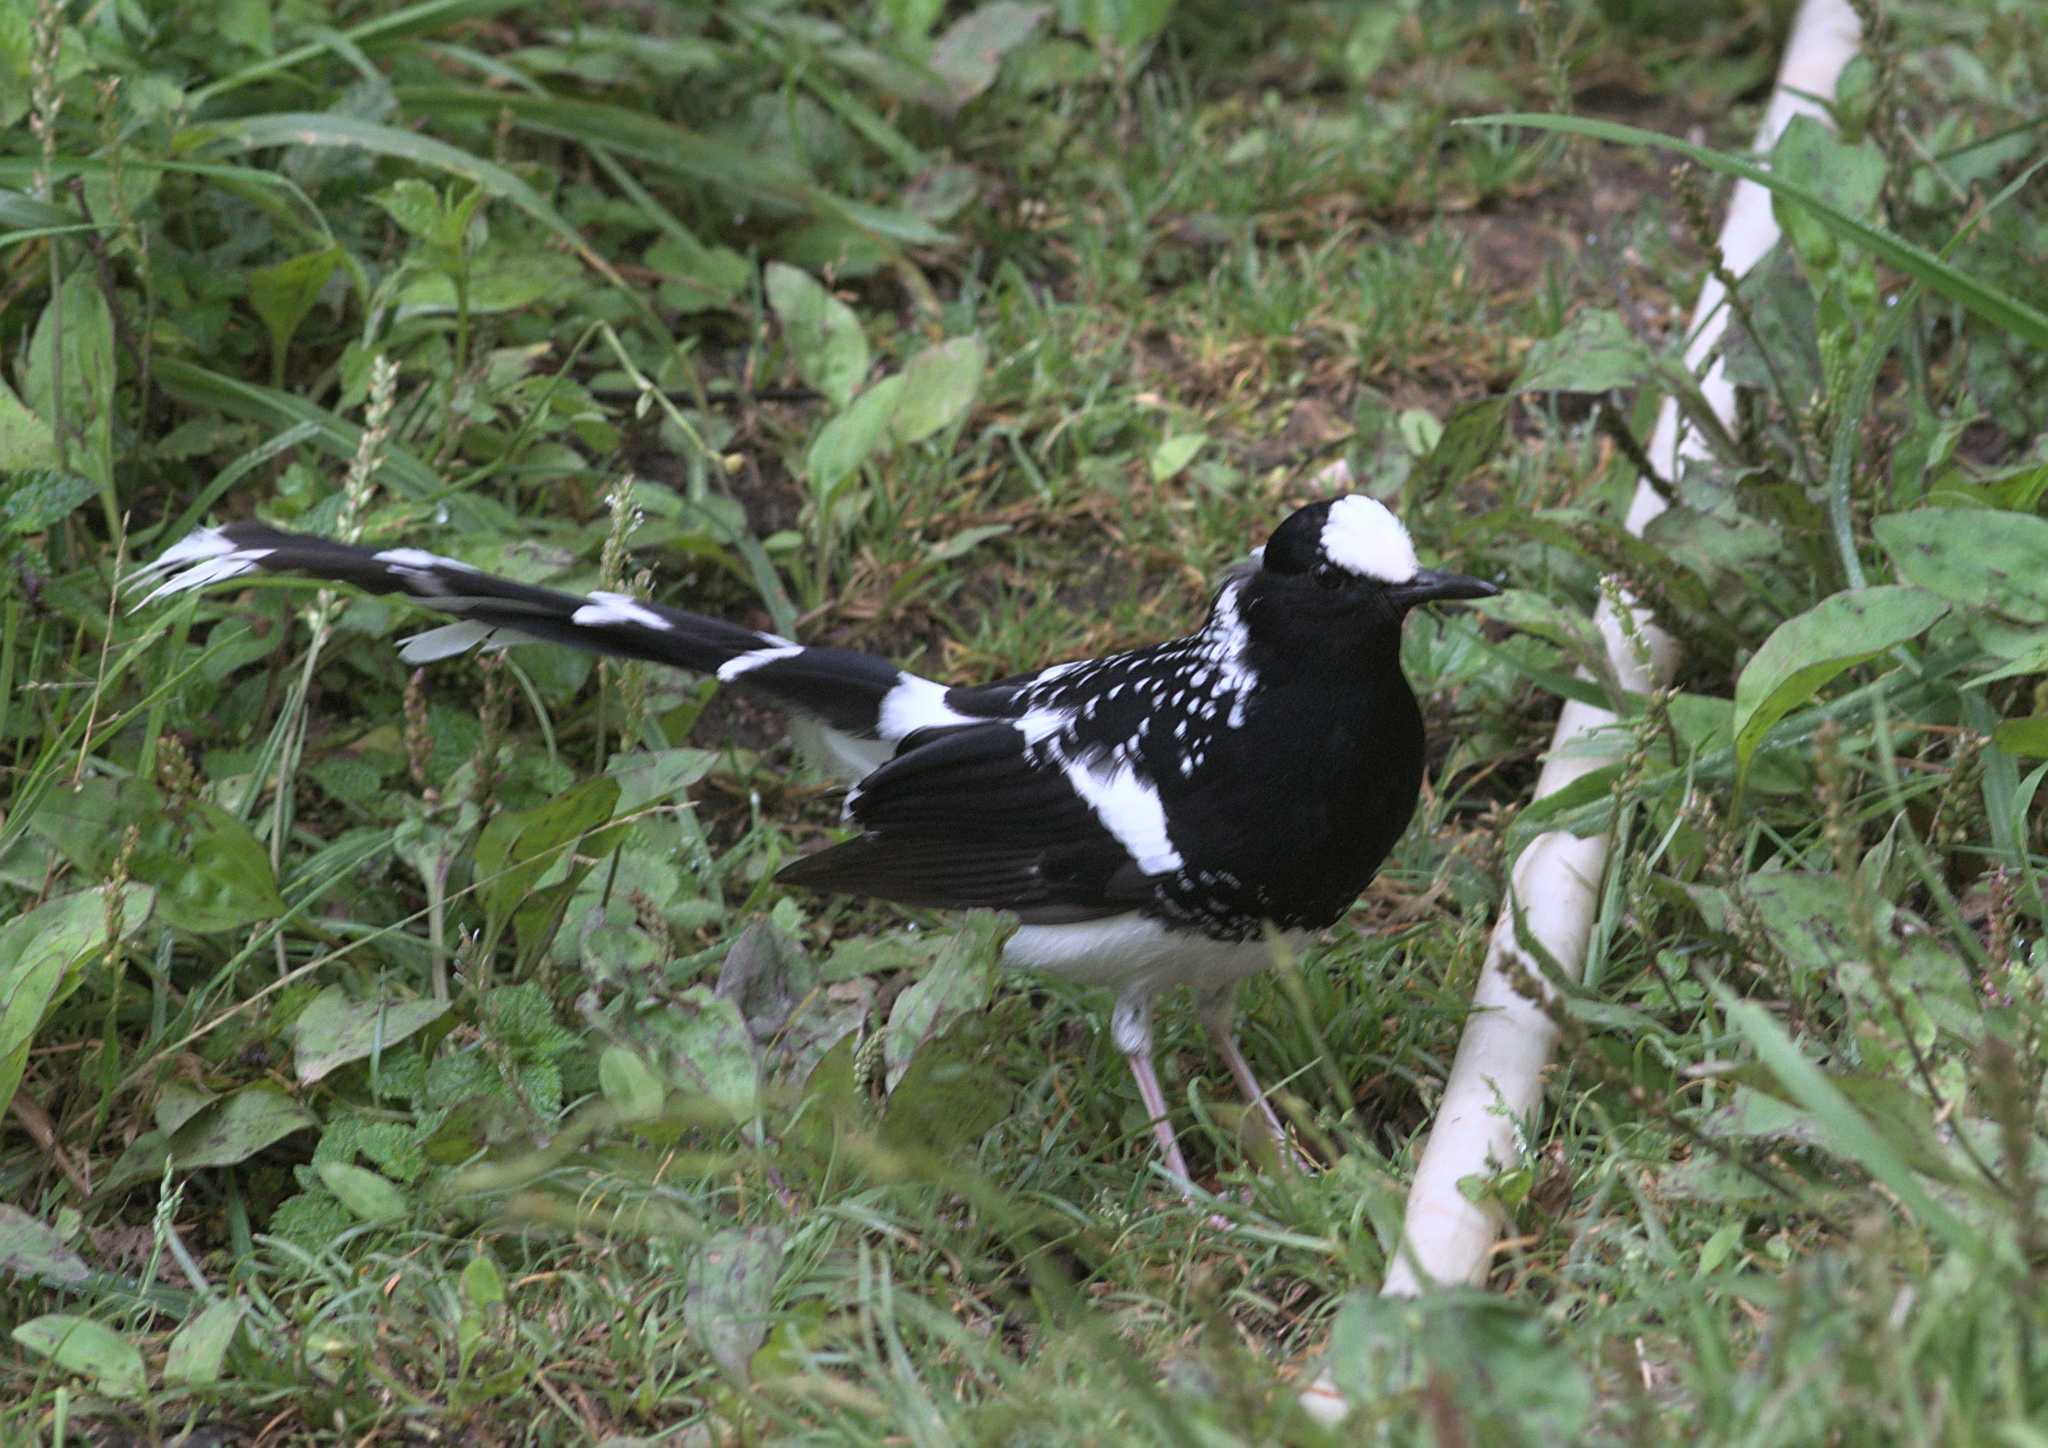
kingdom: Animalia
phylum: Chordata
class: Aves
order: Passeriformes
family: Muscicapidae
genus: Enicurus
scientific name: Enicurus maculatus
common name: Spotted forktail
